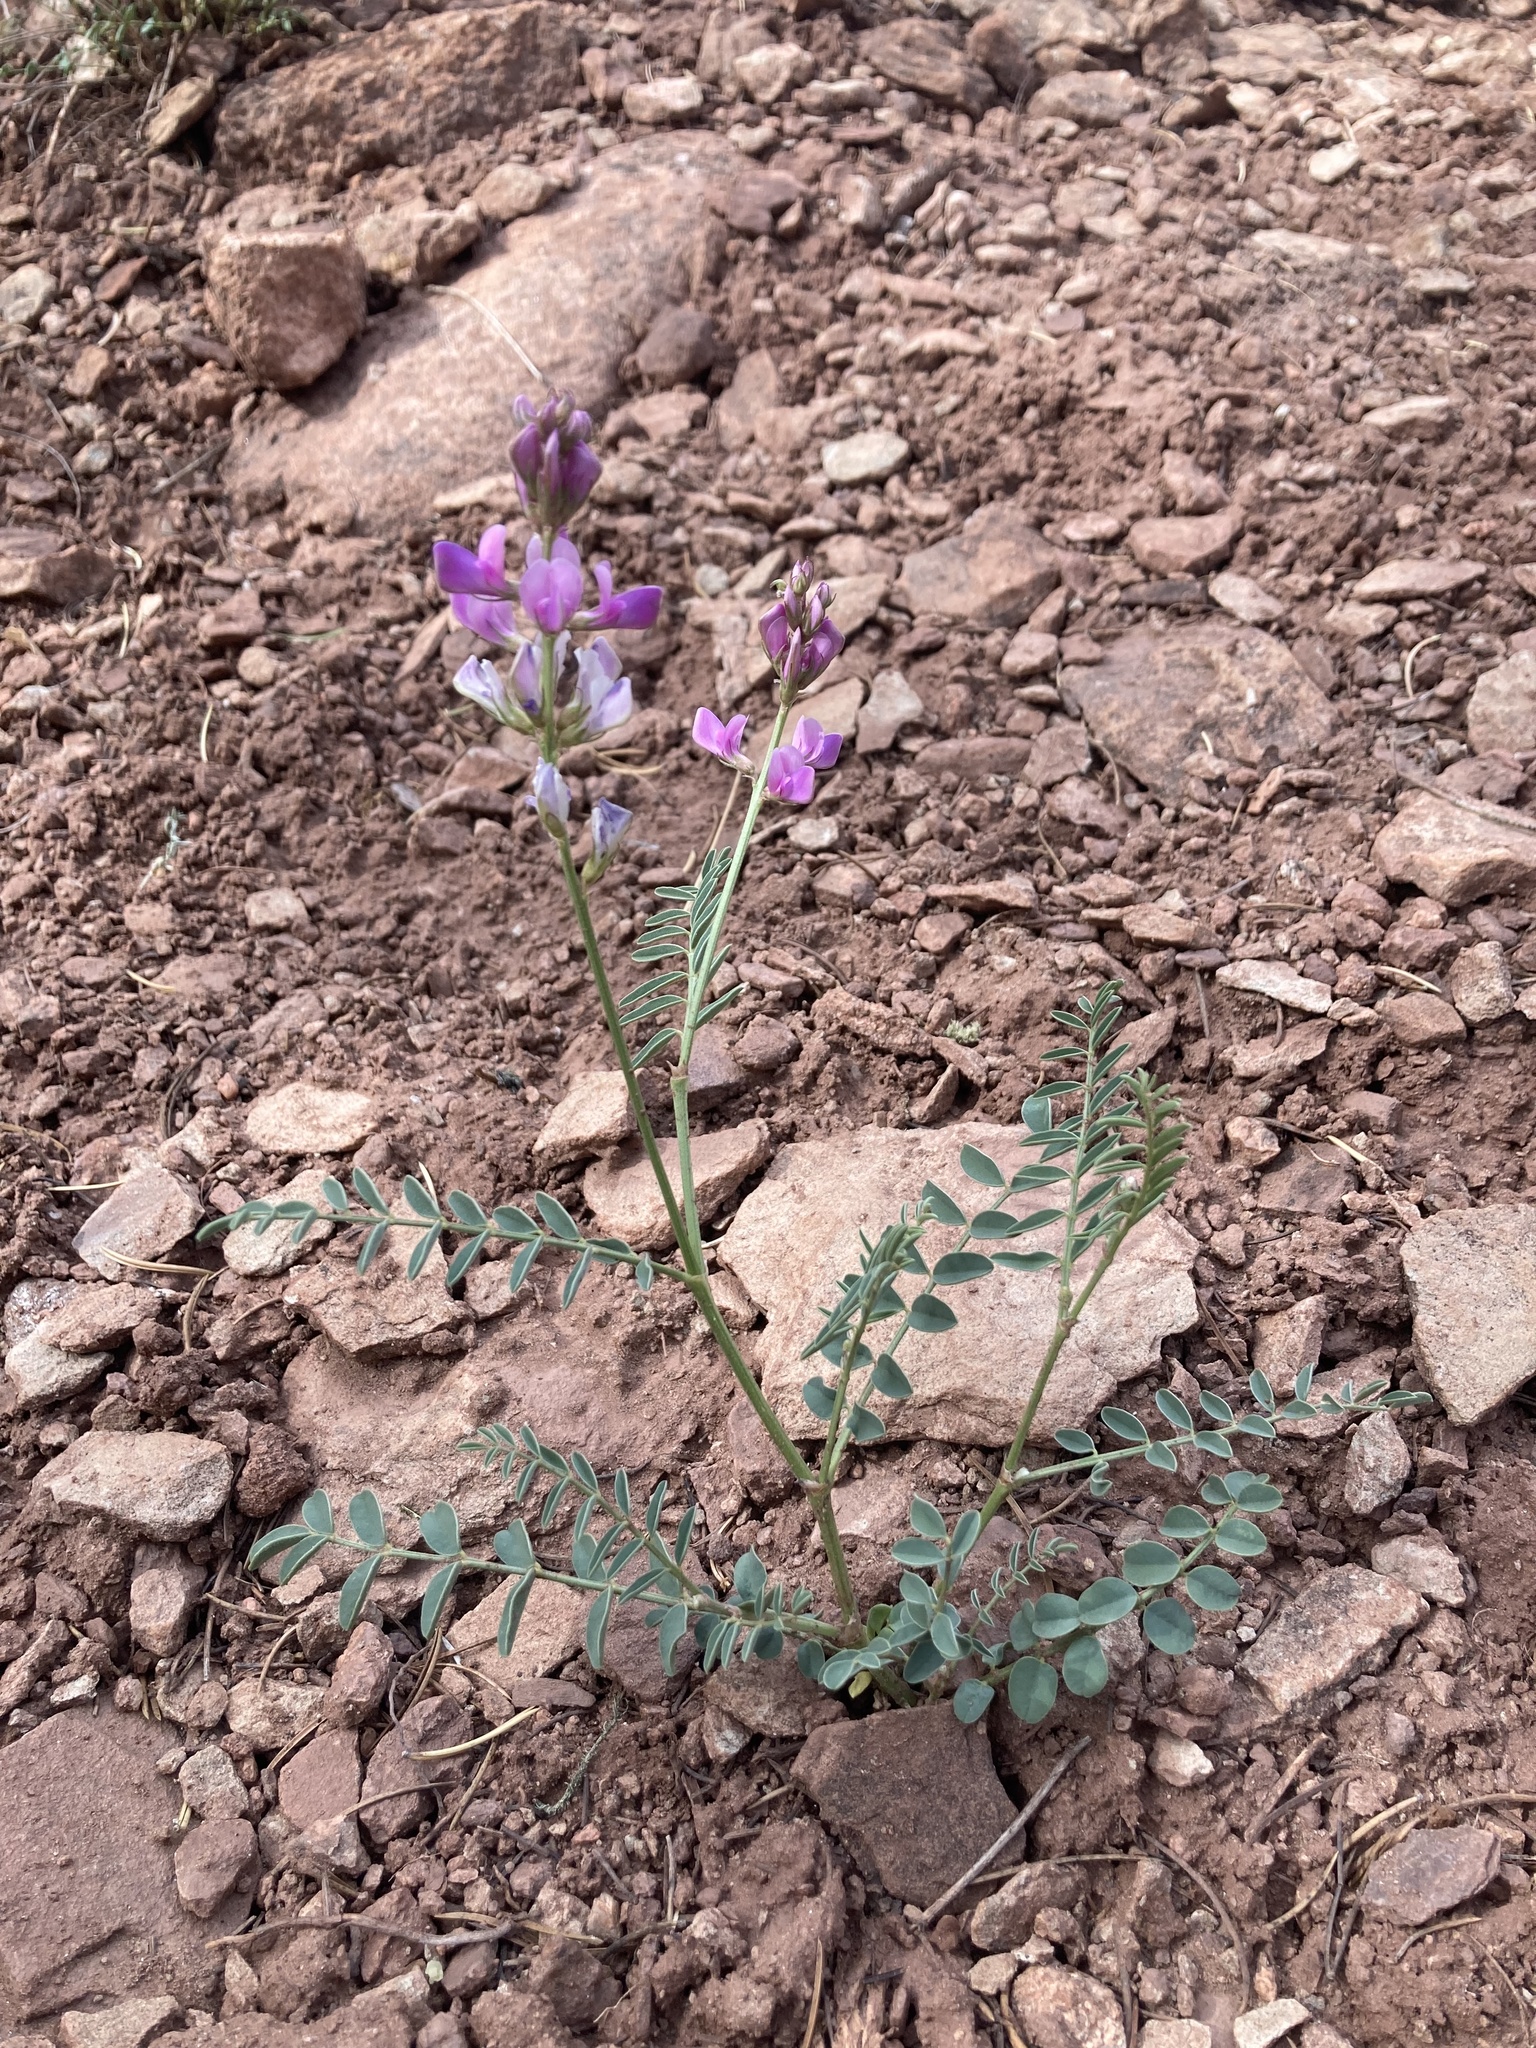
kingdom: Plantae
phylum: Tracheophyta
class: Magnoliopsida
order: Fabales
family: Fabaceae
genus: Hedysarum
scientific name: Hedysarum boreale
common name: Northern sweet-vetch
